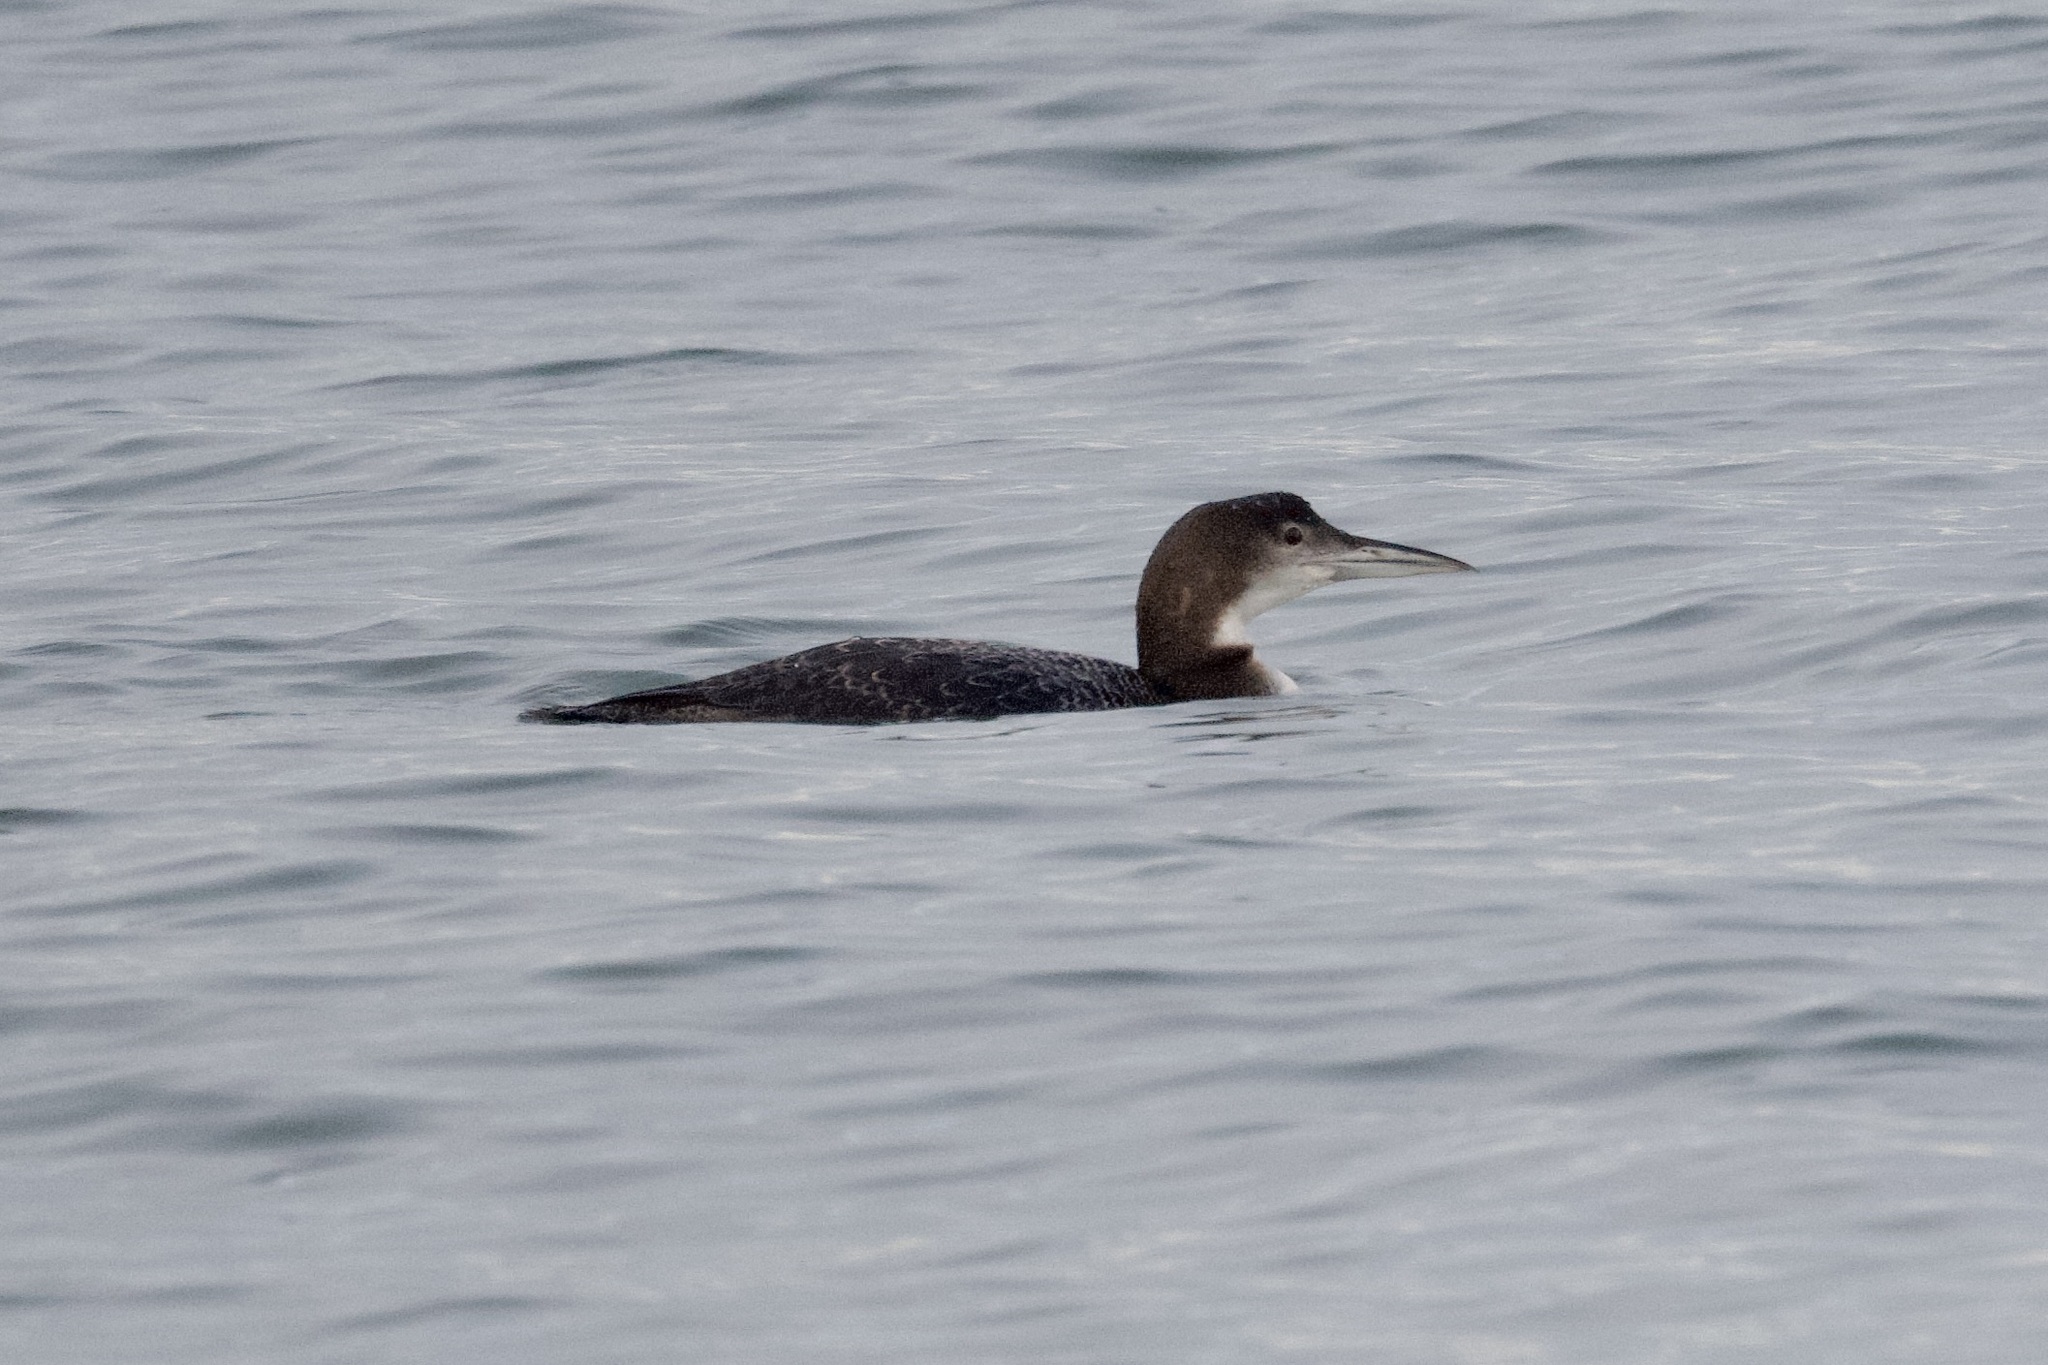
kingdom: Animalia
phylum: Chordata
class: Aves
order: Gaviiformes
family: Gaviidae
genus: Gavia
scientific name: Gavia immer
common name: Common loon
